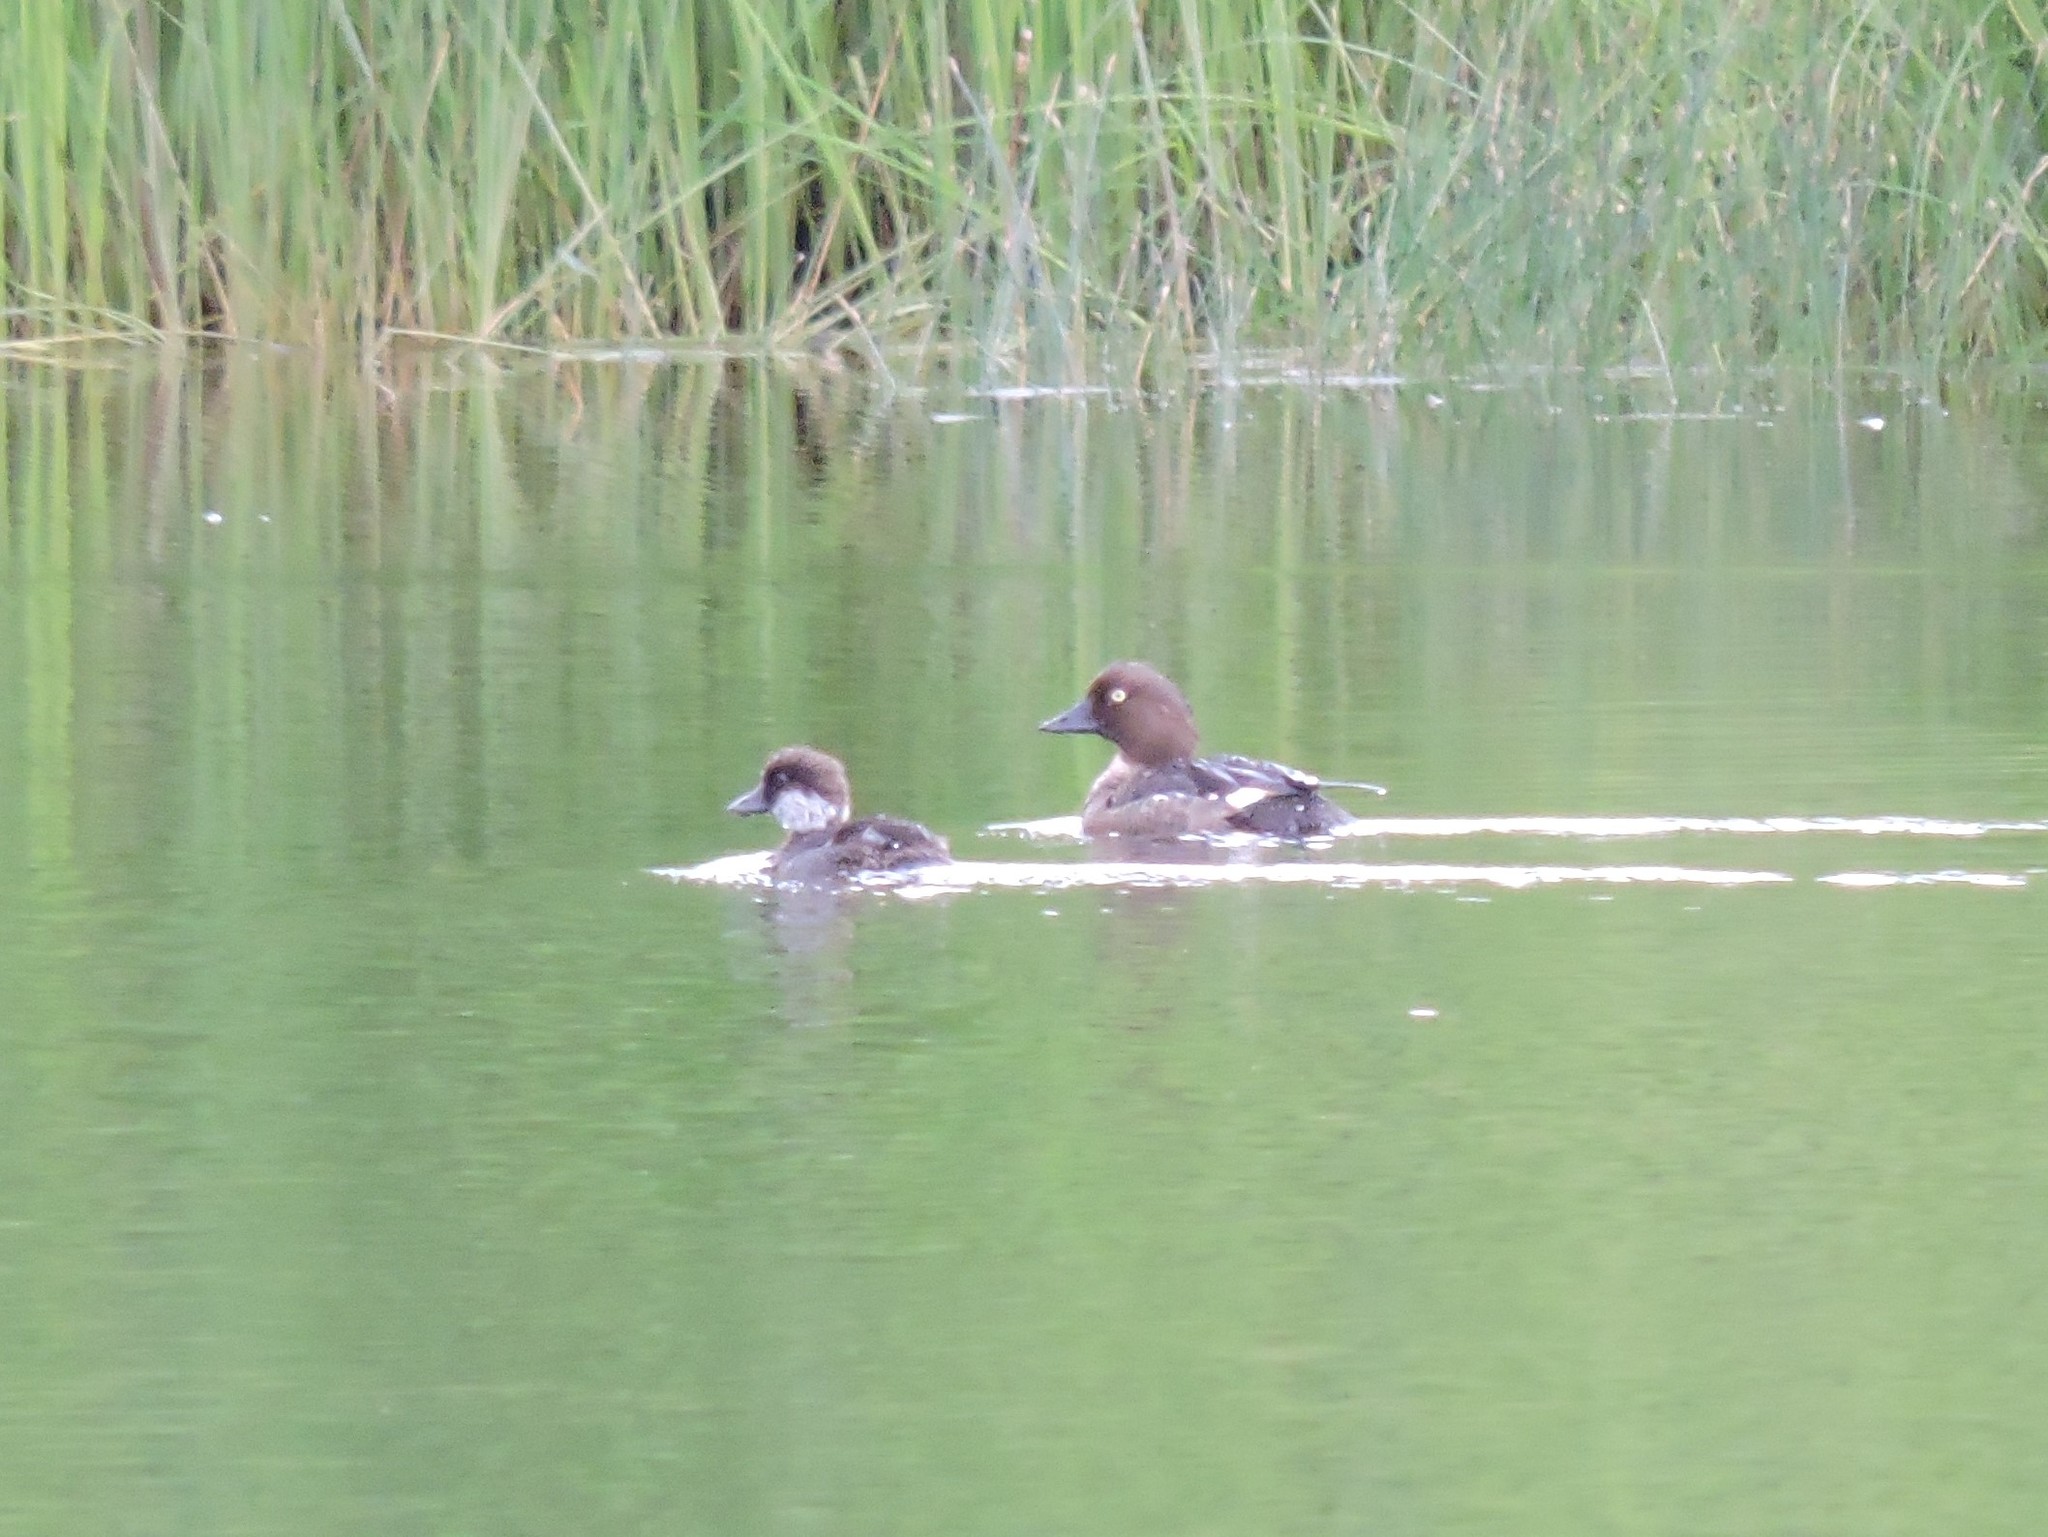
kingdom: Animalia
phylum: Chordata
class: Aves
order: Anseriformes
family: Anatidae
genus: Bucephala
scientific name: Bucephala clangula
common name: Common goldeneye
